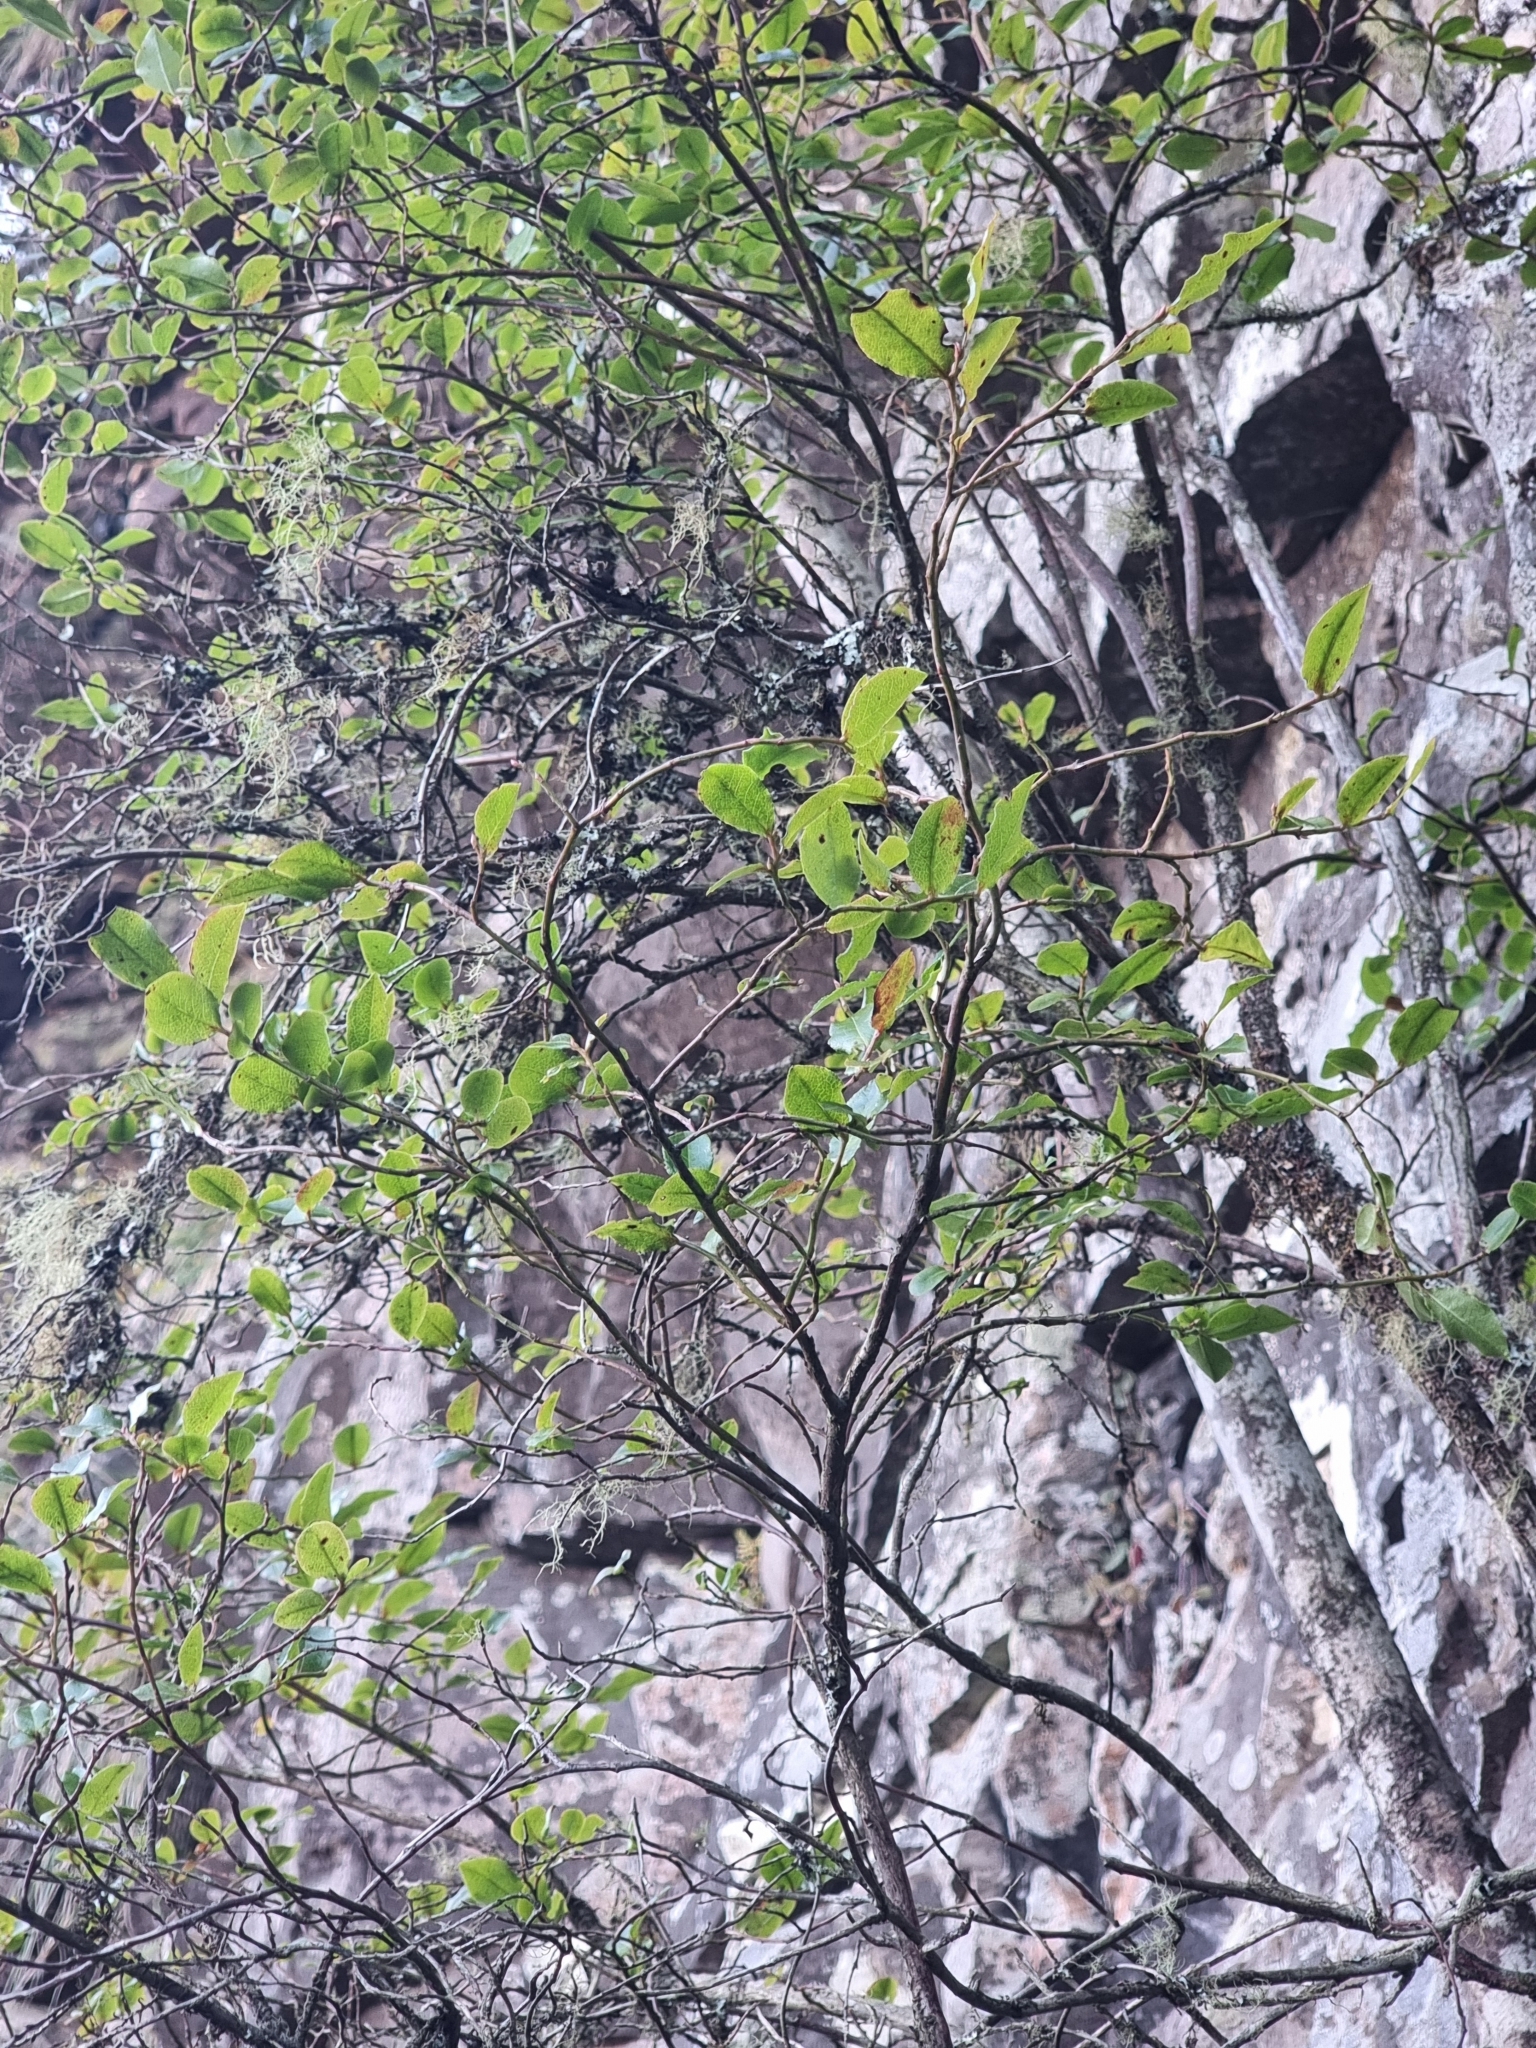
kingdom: Plantae
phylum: Tracheophyta
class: Magnoliopsida
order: Ericales
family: Ericaceae
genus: Vaccinium
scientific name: Vaccinium padifolium
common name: Madeiran blueberry
